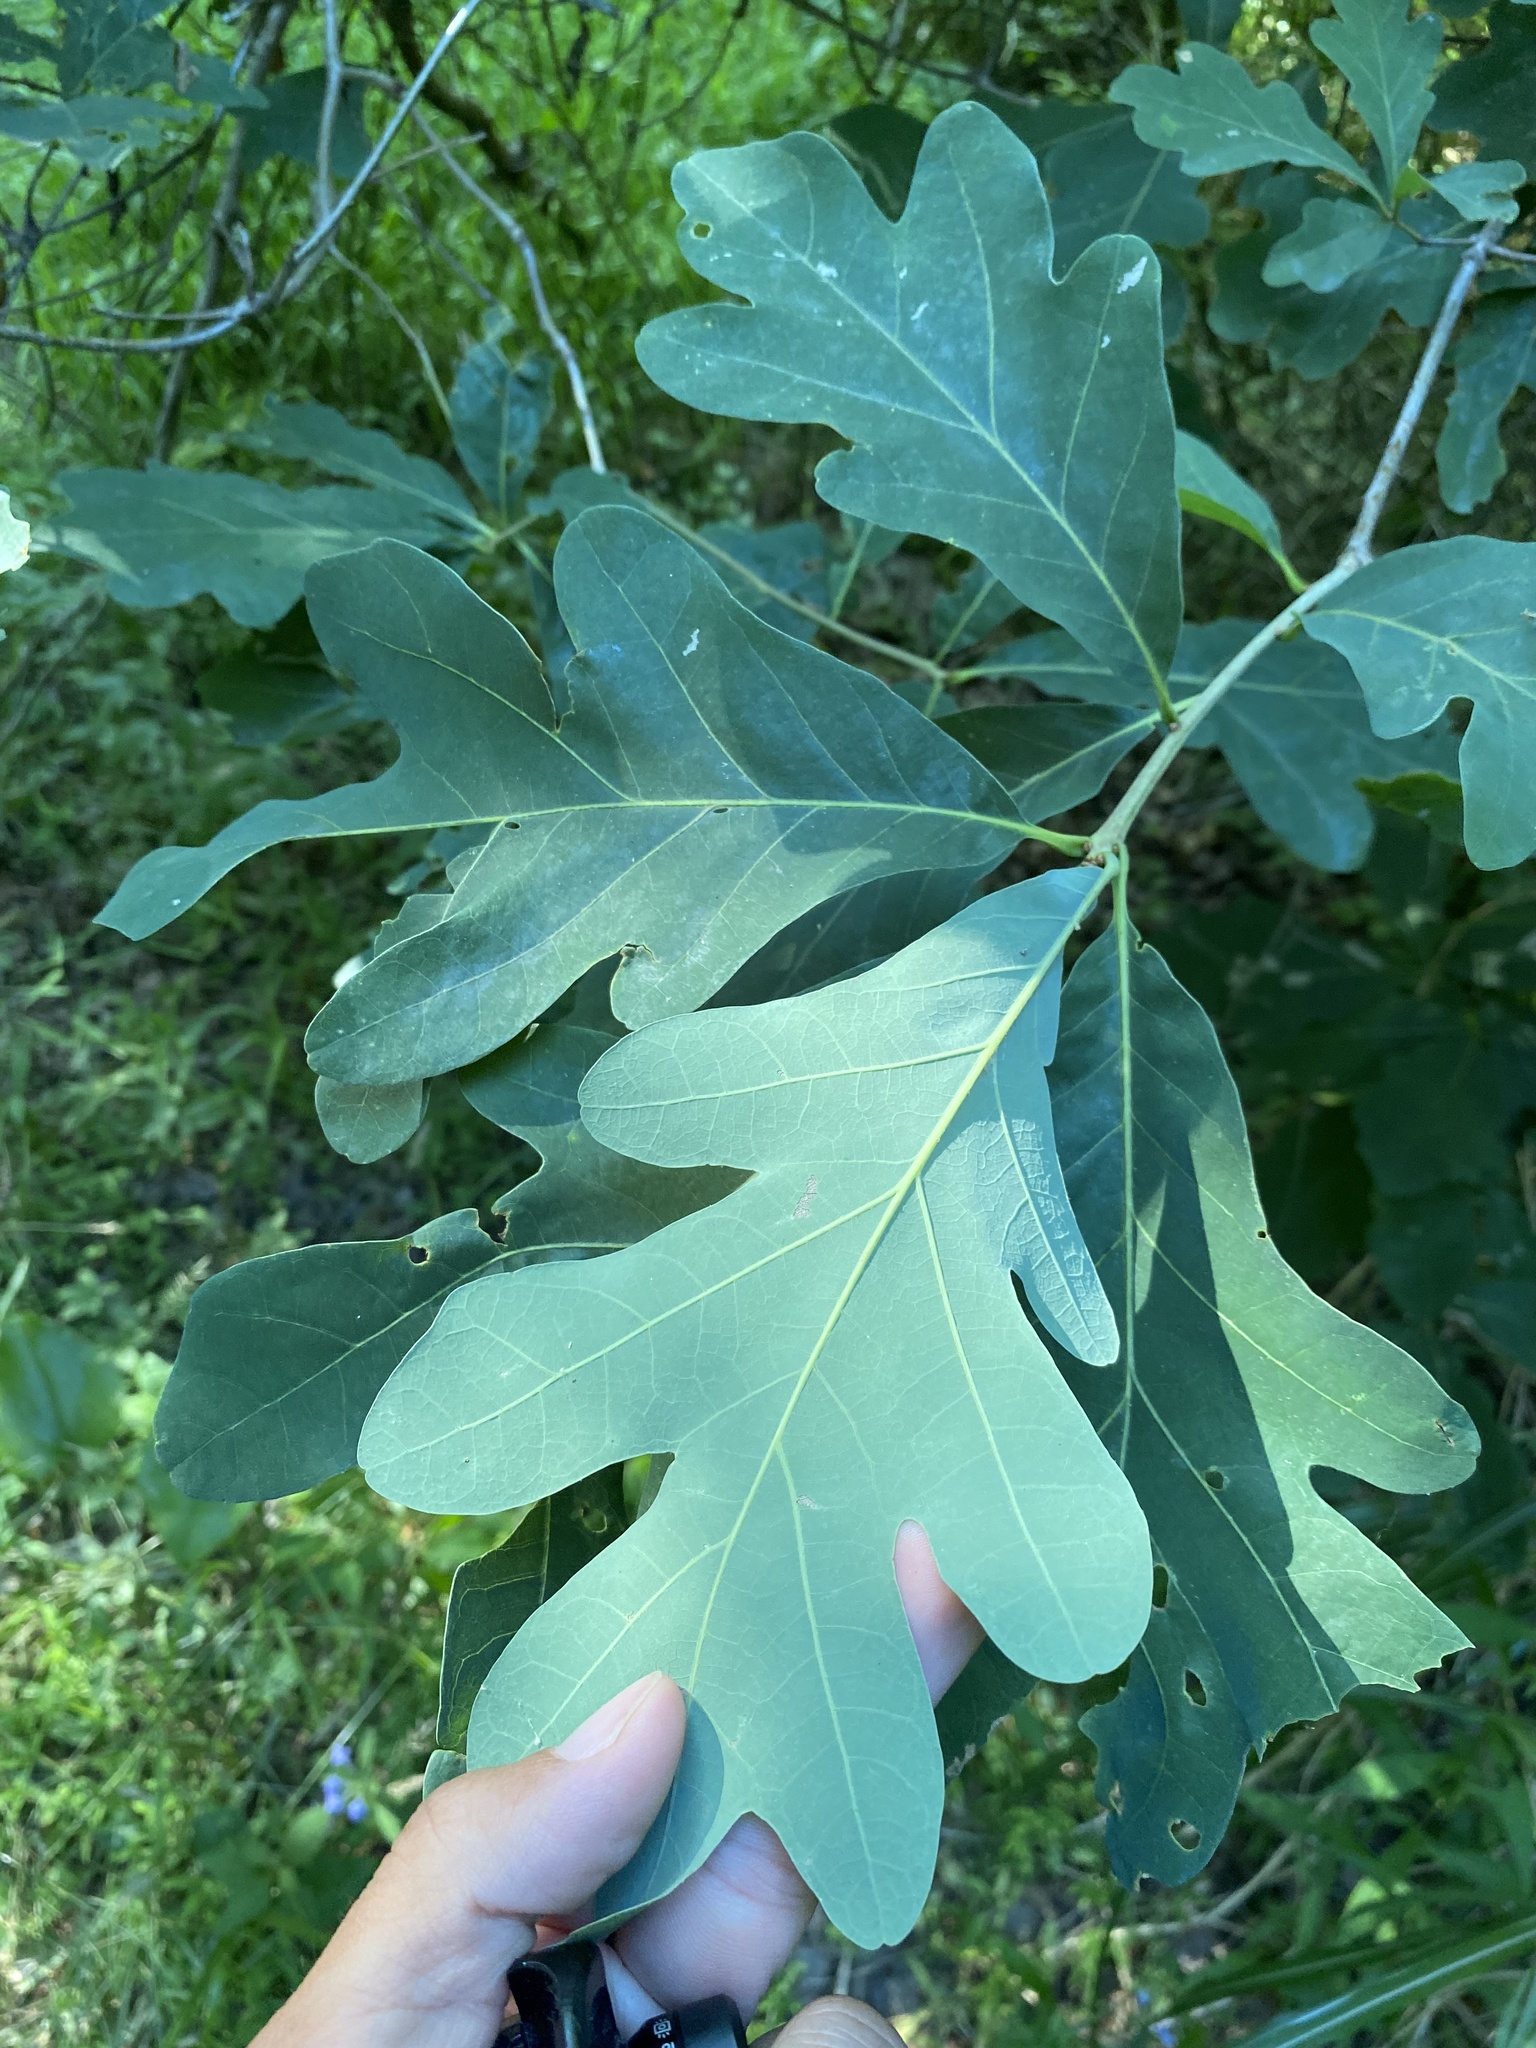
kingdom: Plantae
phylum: Tracheophyta
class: Magnoliopsida
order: Fagales
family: Fagaceae
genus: Quercus
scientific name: Quercus alba
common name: White oak
